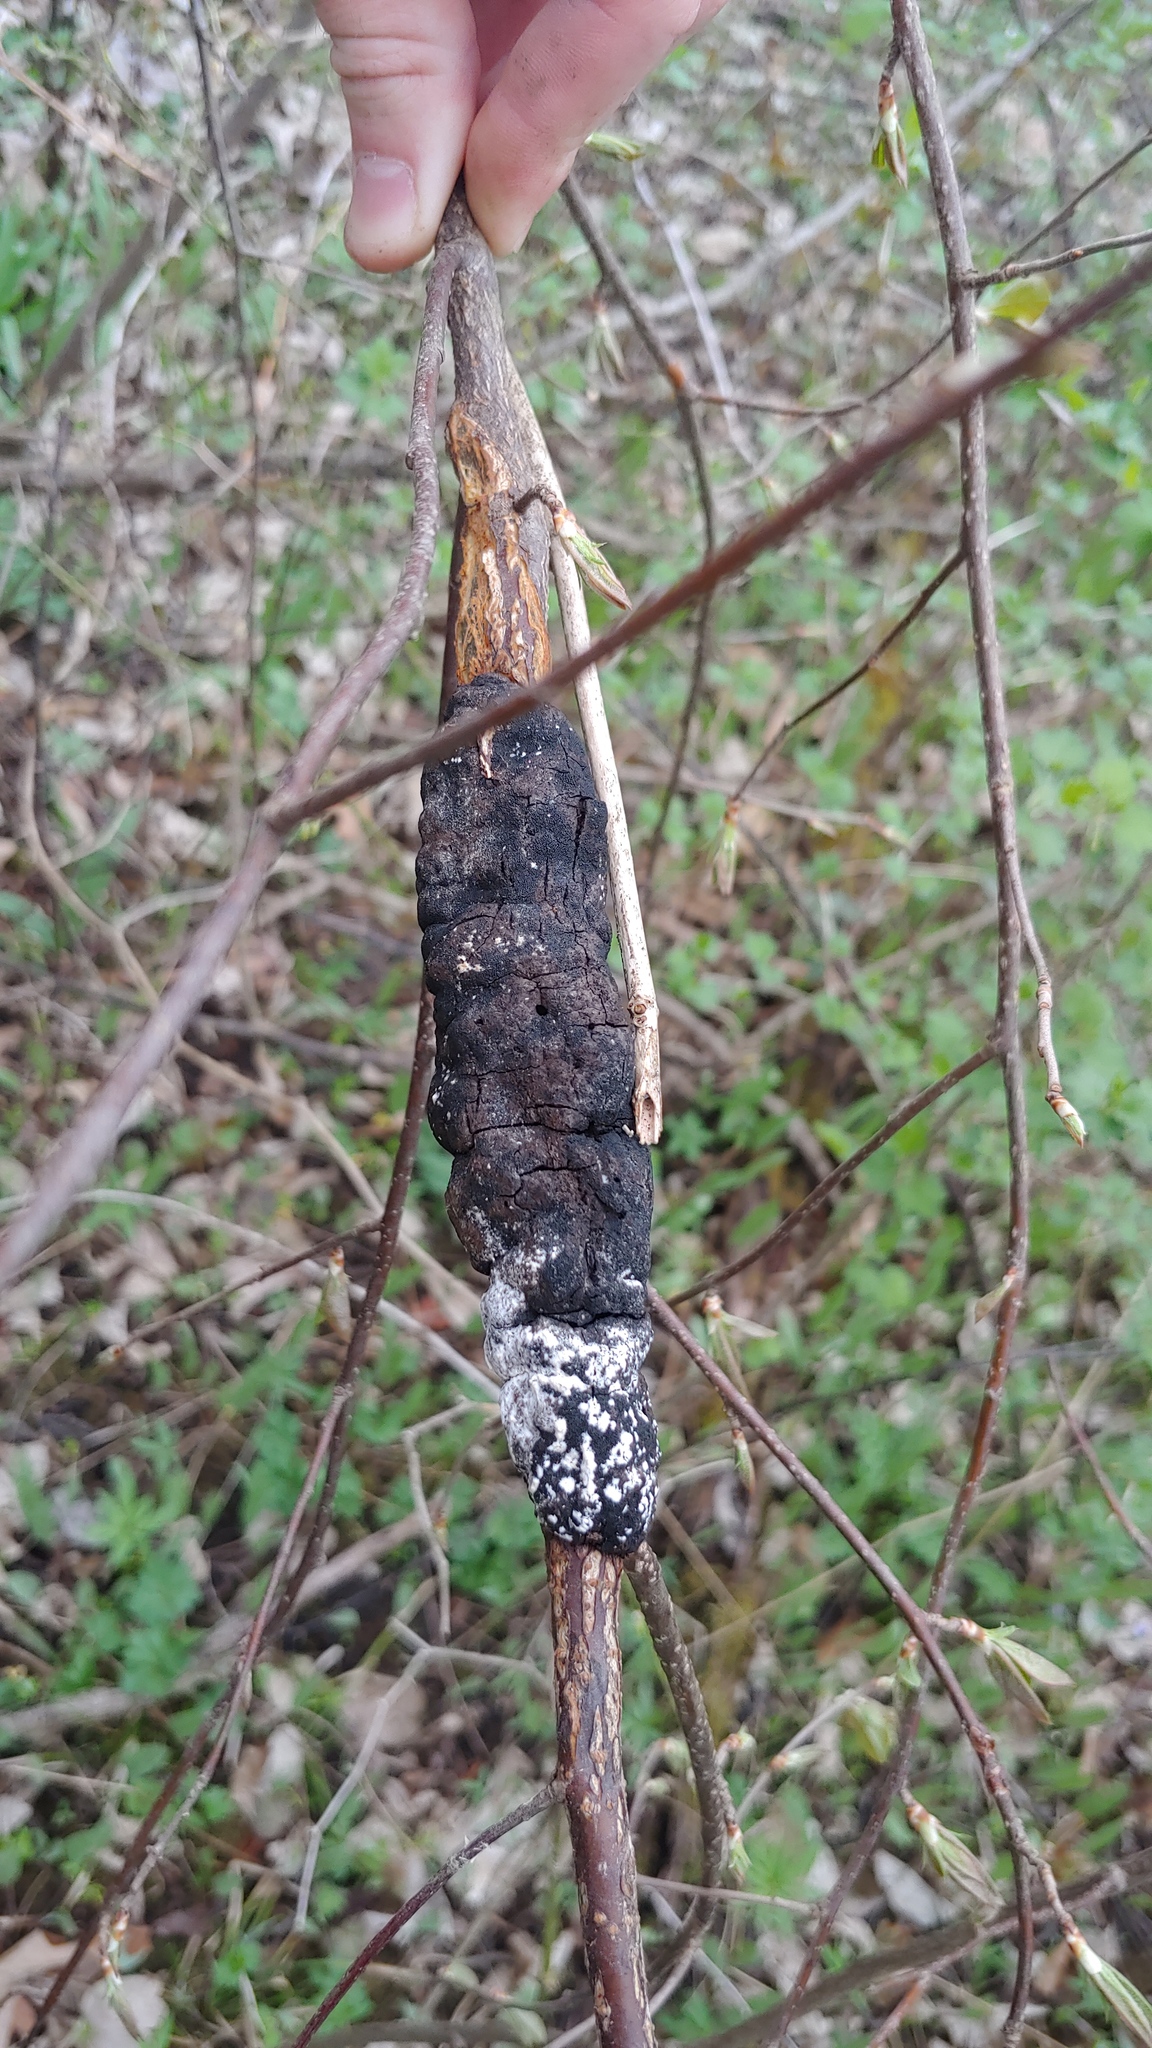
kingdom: Fungi
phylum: Ascomycota
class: Dothideomycetes
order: Venturiales
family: Venturiaceae
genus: Apiosporina
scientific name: Apiosporina morbosa
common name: Black knot
